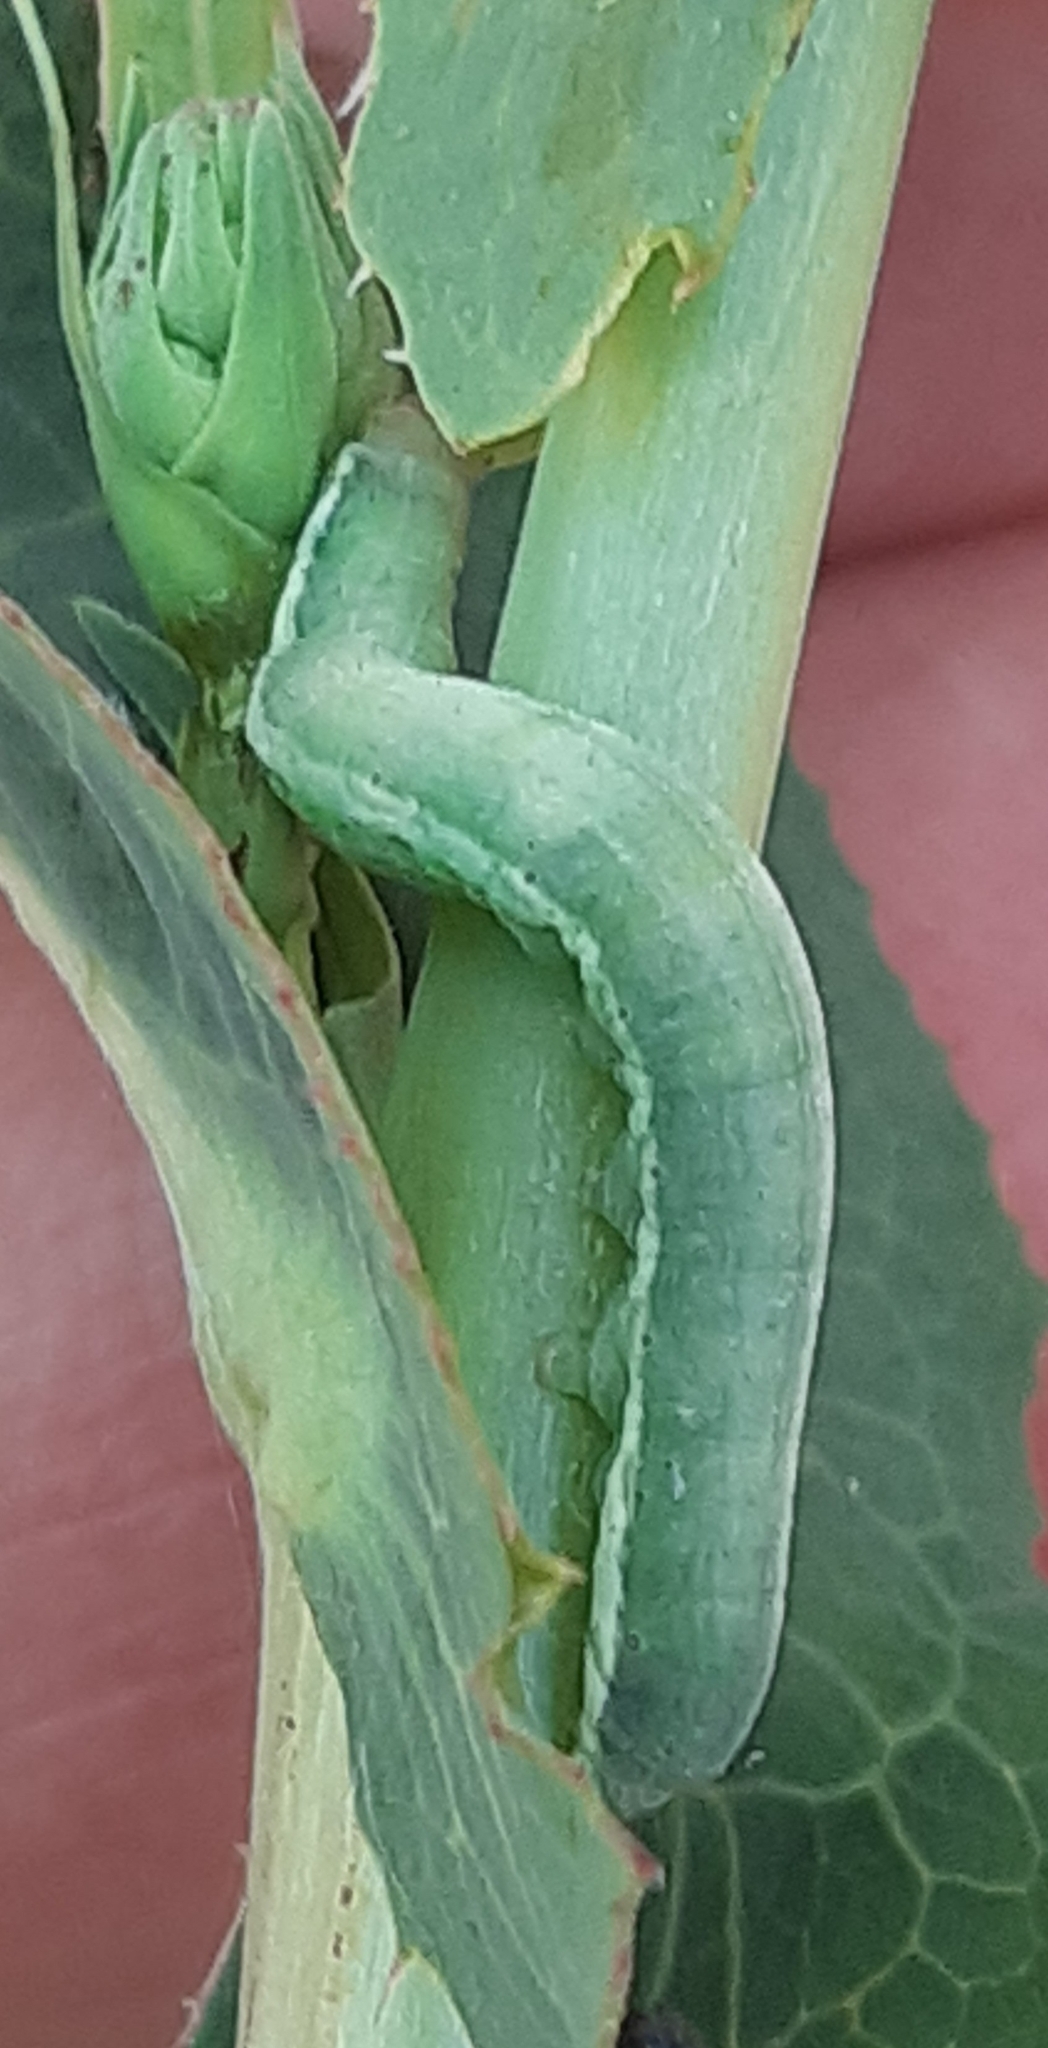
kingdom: Animalia
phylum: Arthropoda
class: Insecta
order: Lepidoptera
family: Noctuidae
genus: Hecatera
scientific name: Hecatera dysodea
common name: Small ranunculus
